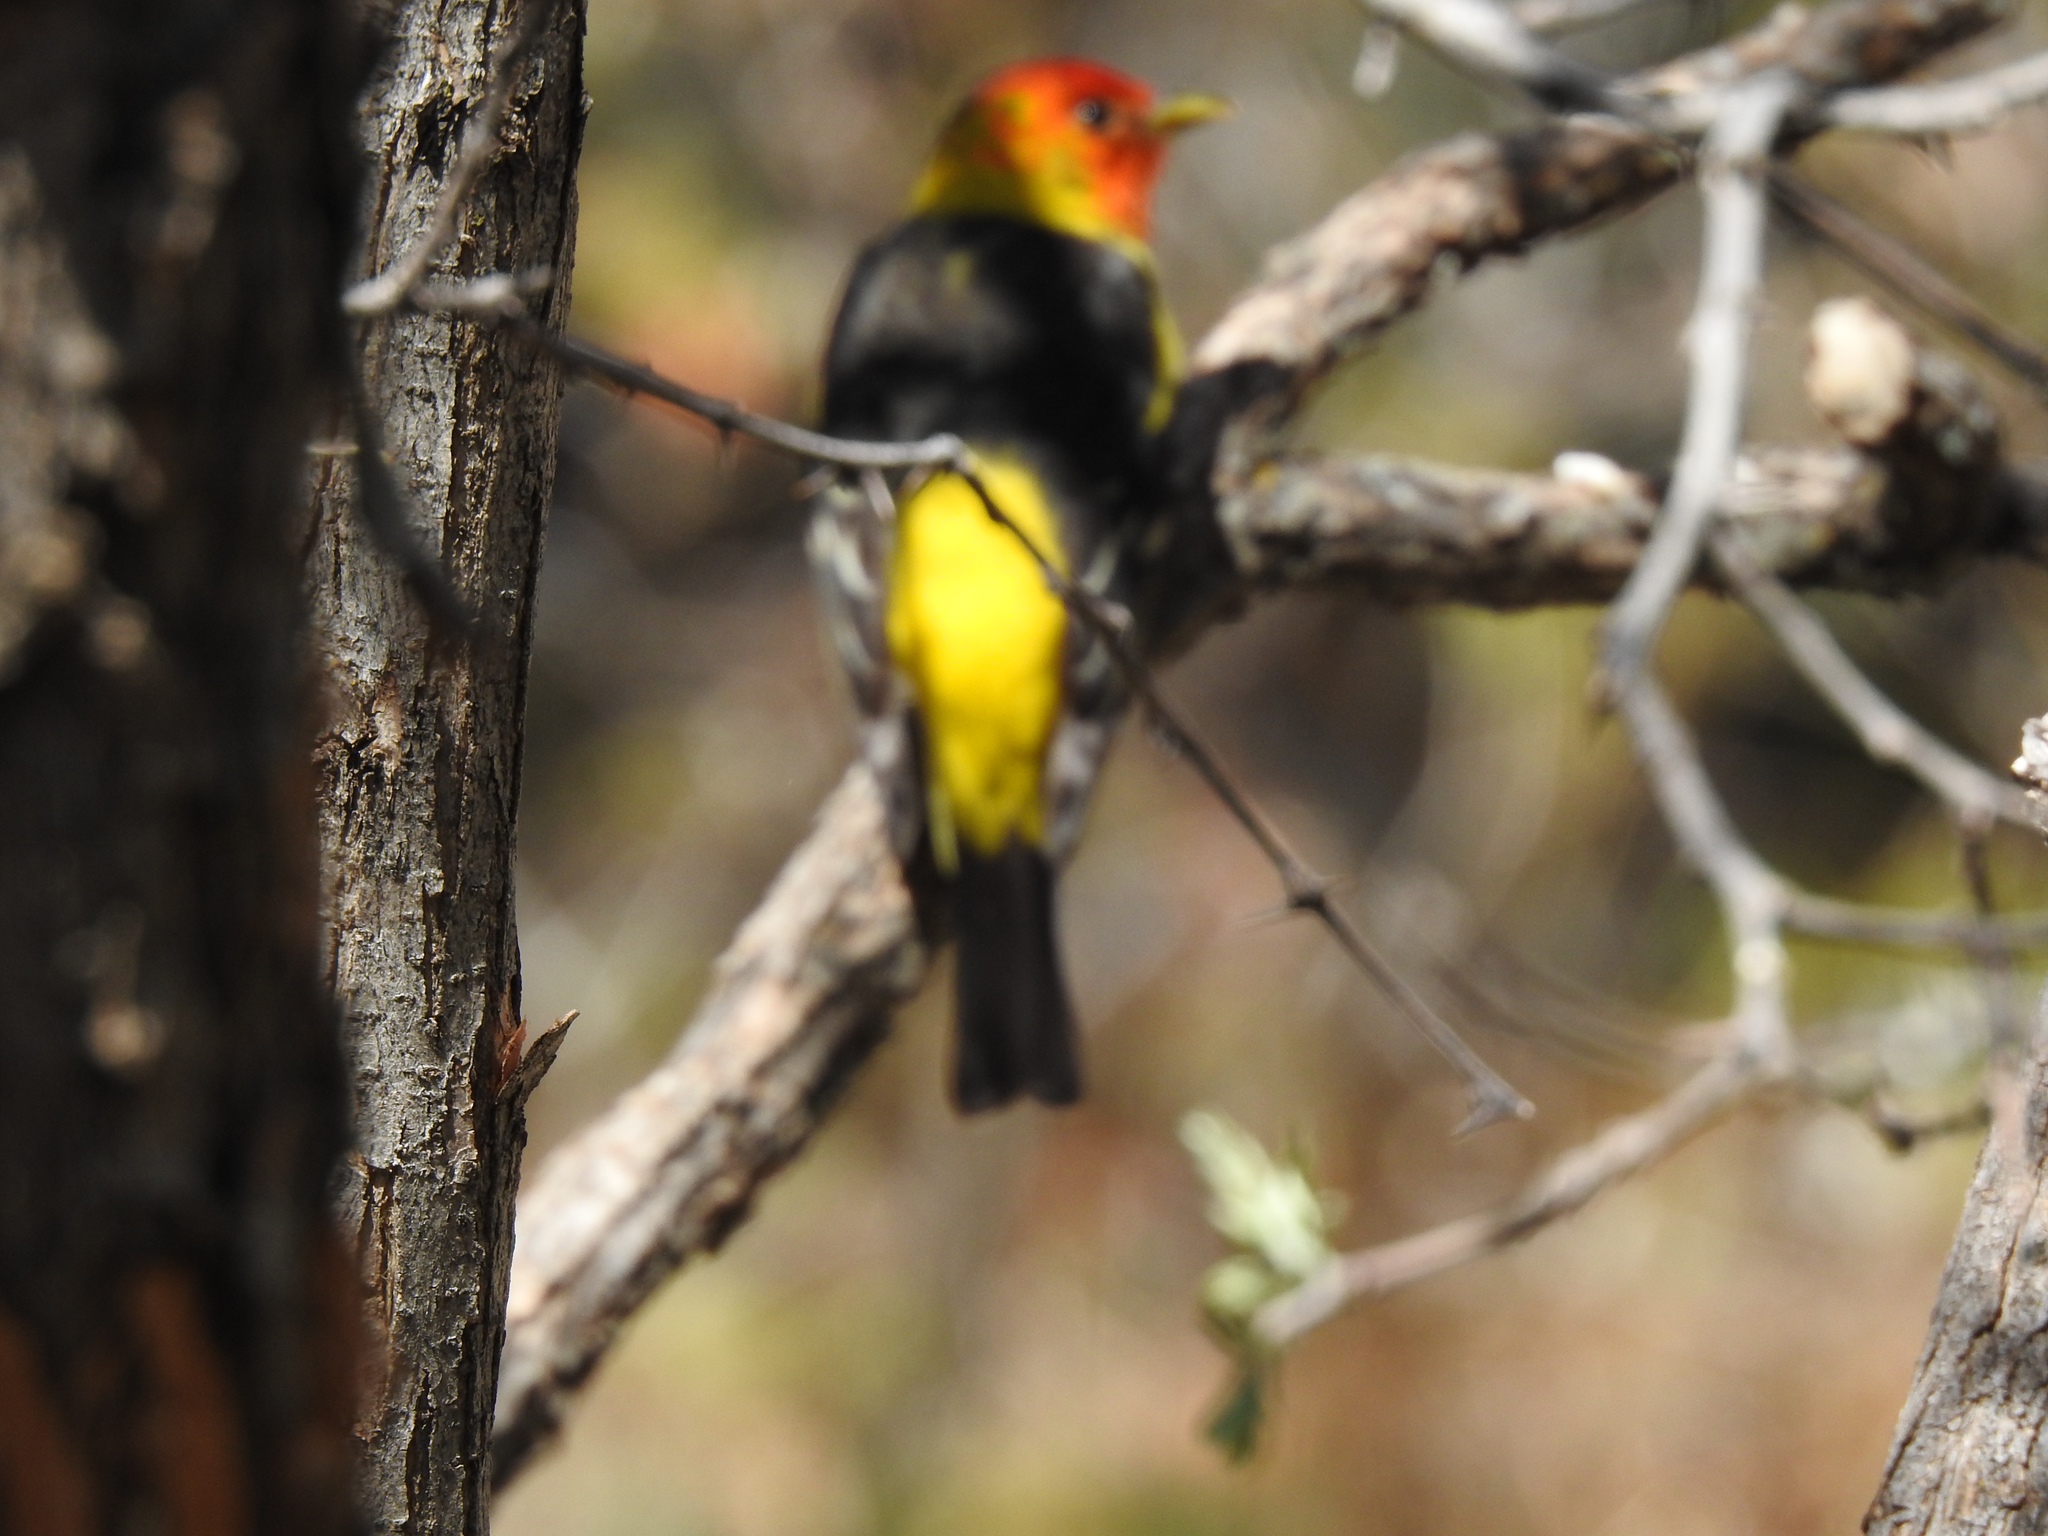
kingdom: Animalia
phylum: Chordata
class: Aves
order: Passeriformes
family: Cardinalidae
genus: Piranga
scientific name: Piranga ludoviciana
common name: Western tanager
